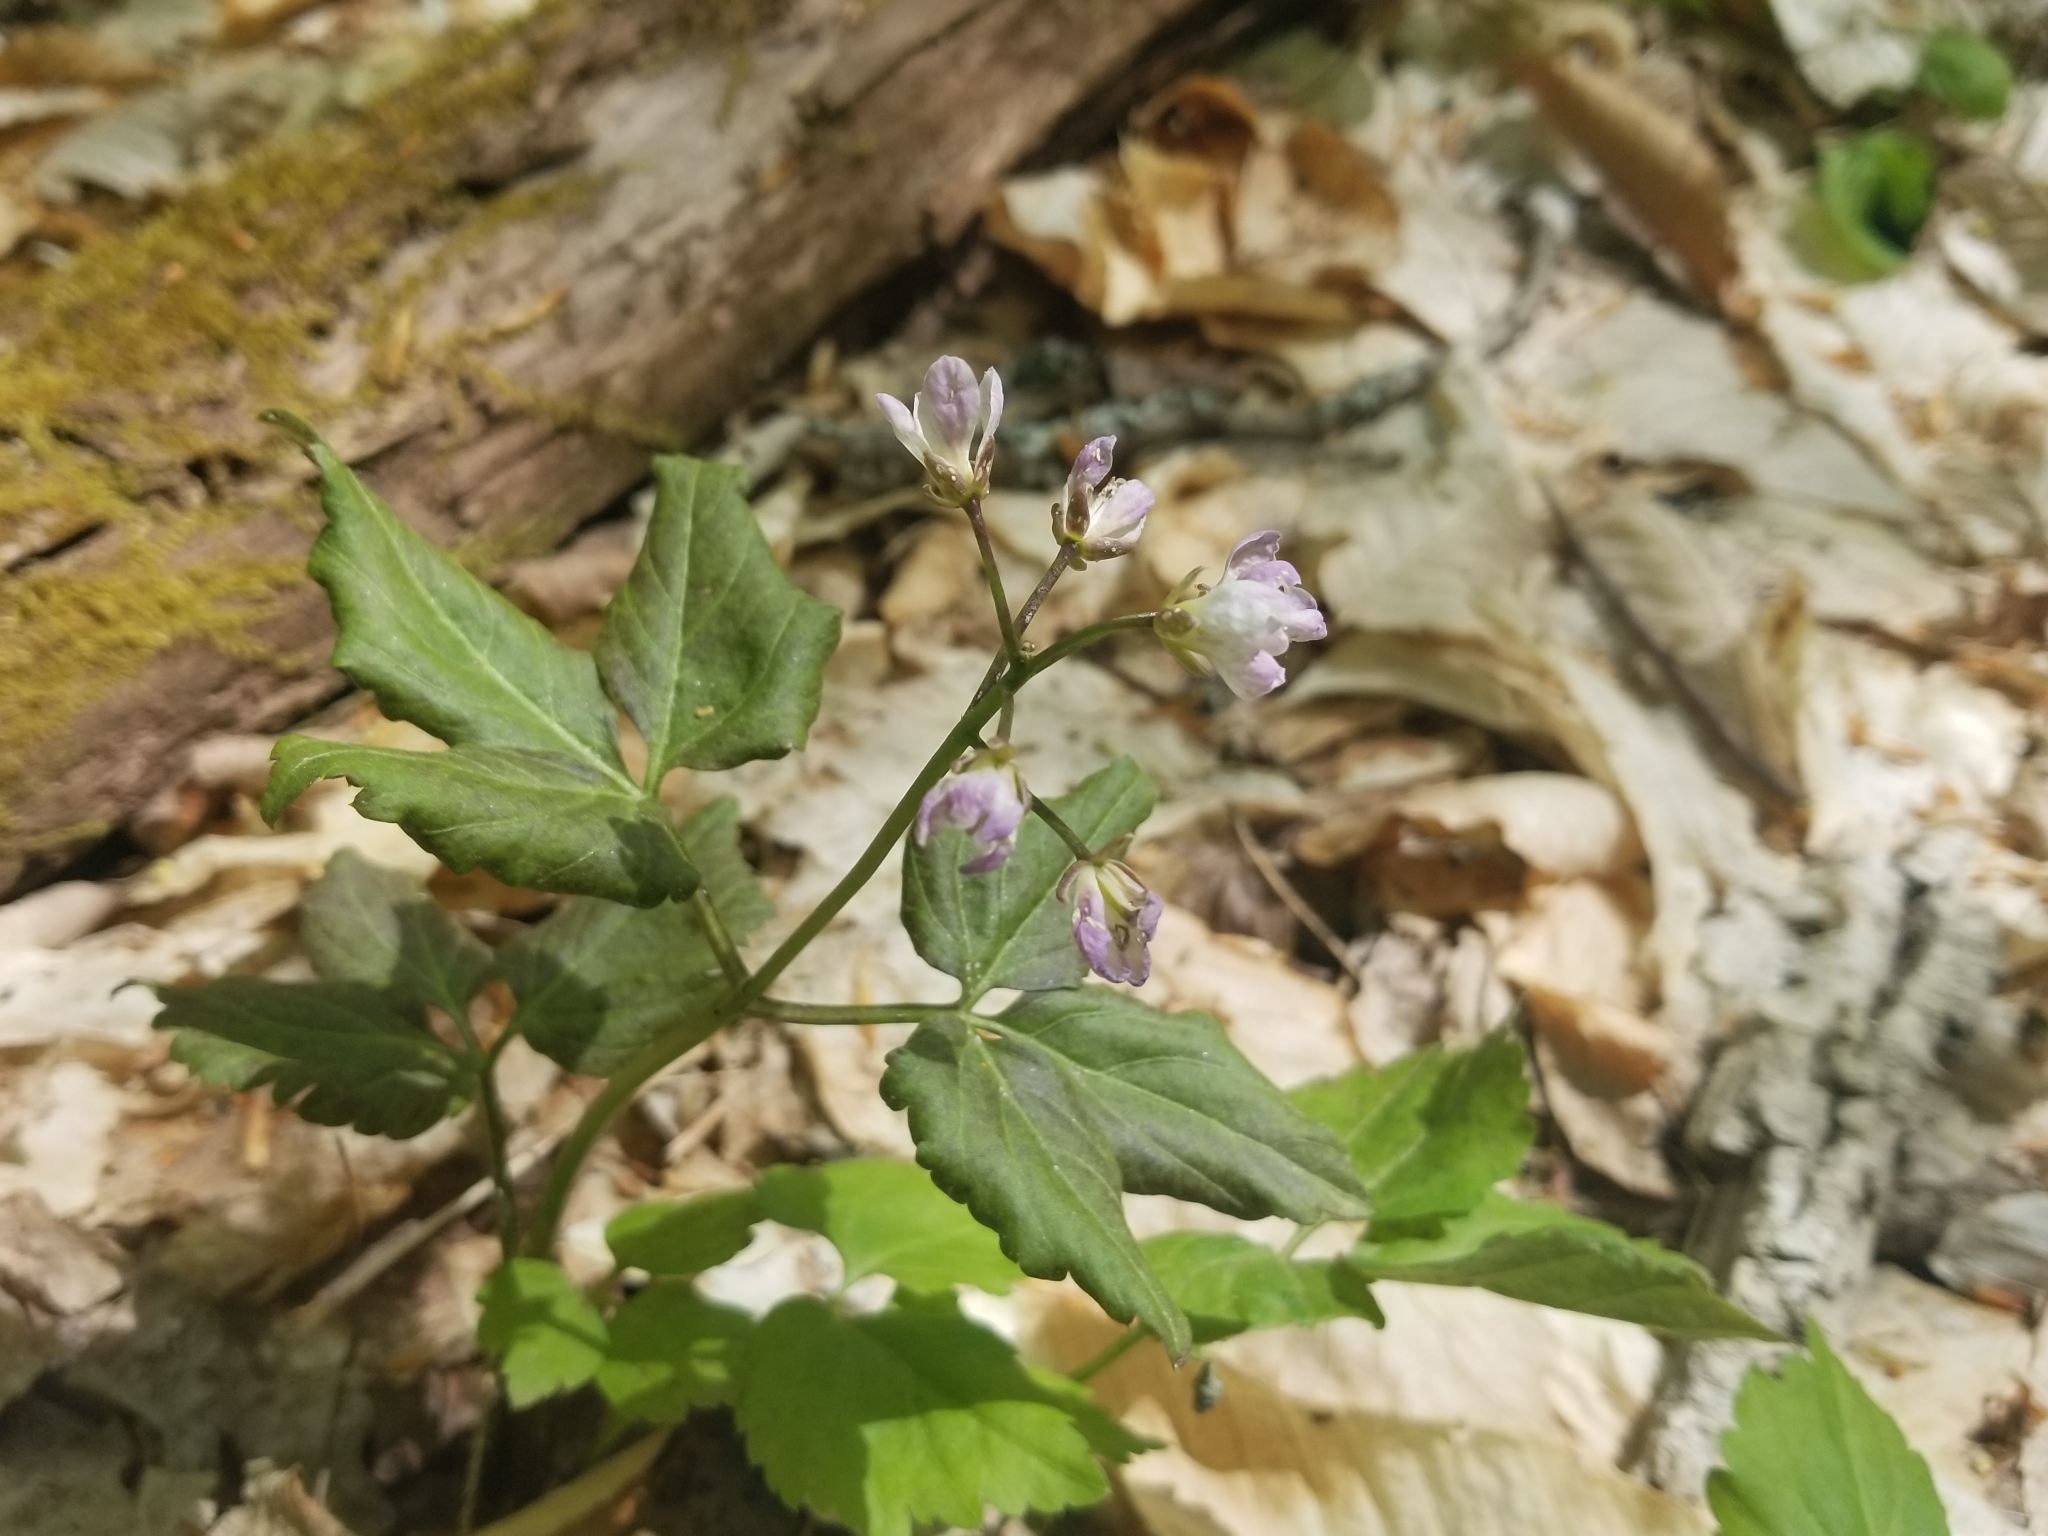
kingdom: Plantae
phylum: Tracheophyta
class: Magnoliopsida
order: Brassicales
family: Brassicaceae
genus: Cardamine
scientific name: Cardamine diphylla
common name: Broad-leaved toothwort
